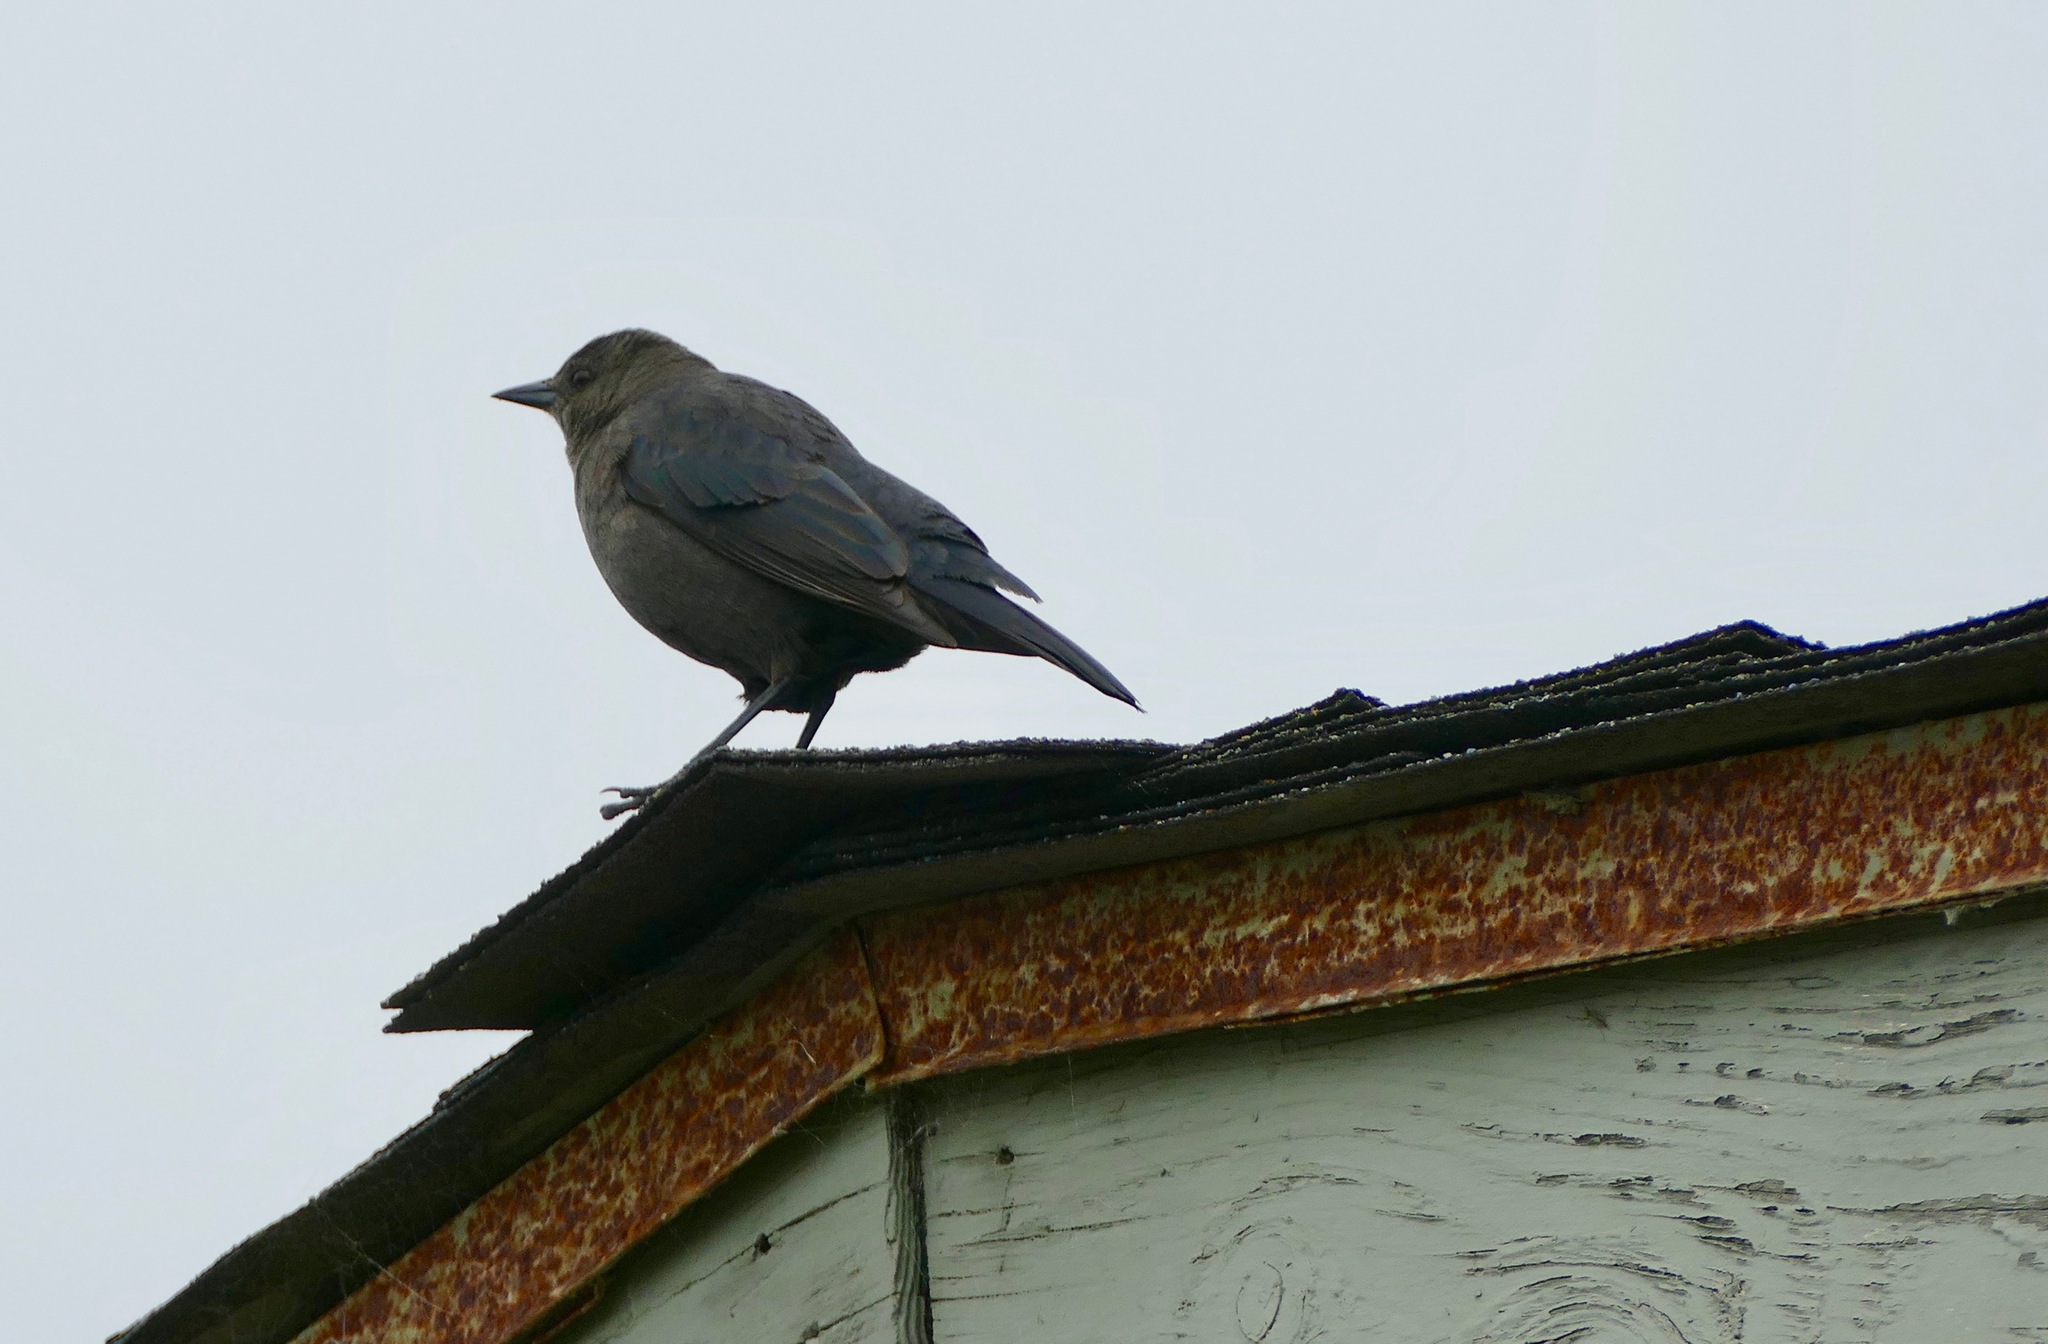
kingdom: Animalia
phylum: Chordata
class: Aves
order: Passeriformes
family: Icteridae
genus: Euphagus
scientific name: Euphagus cyanocephalus
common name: Brewer's blackbird
